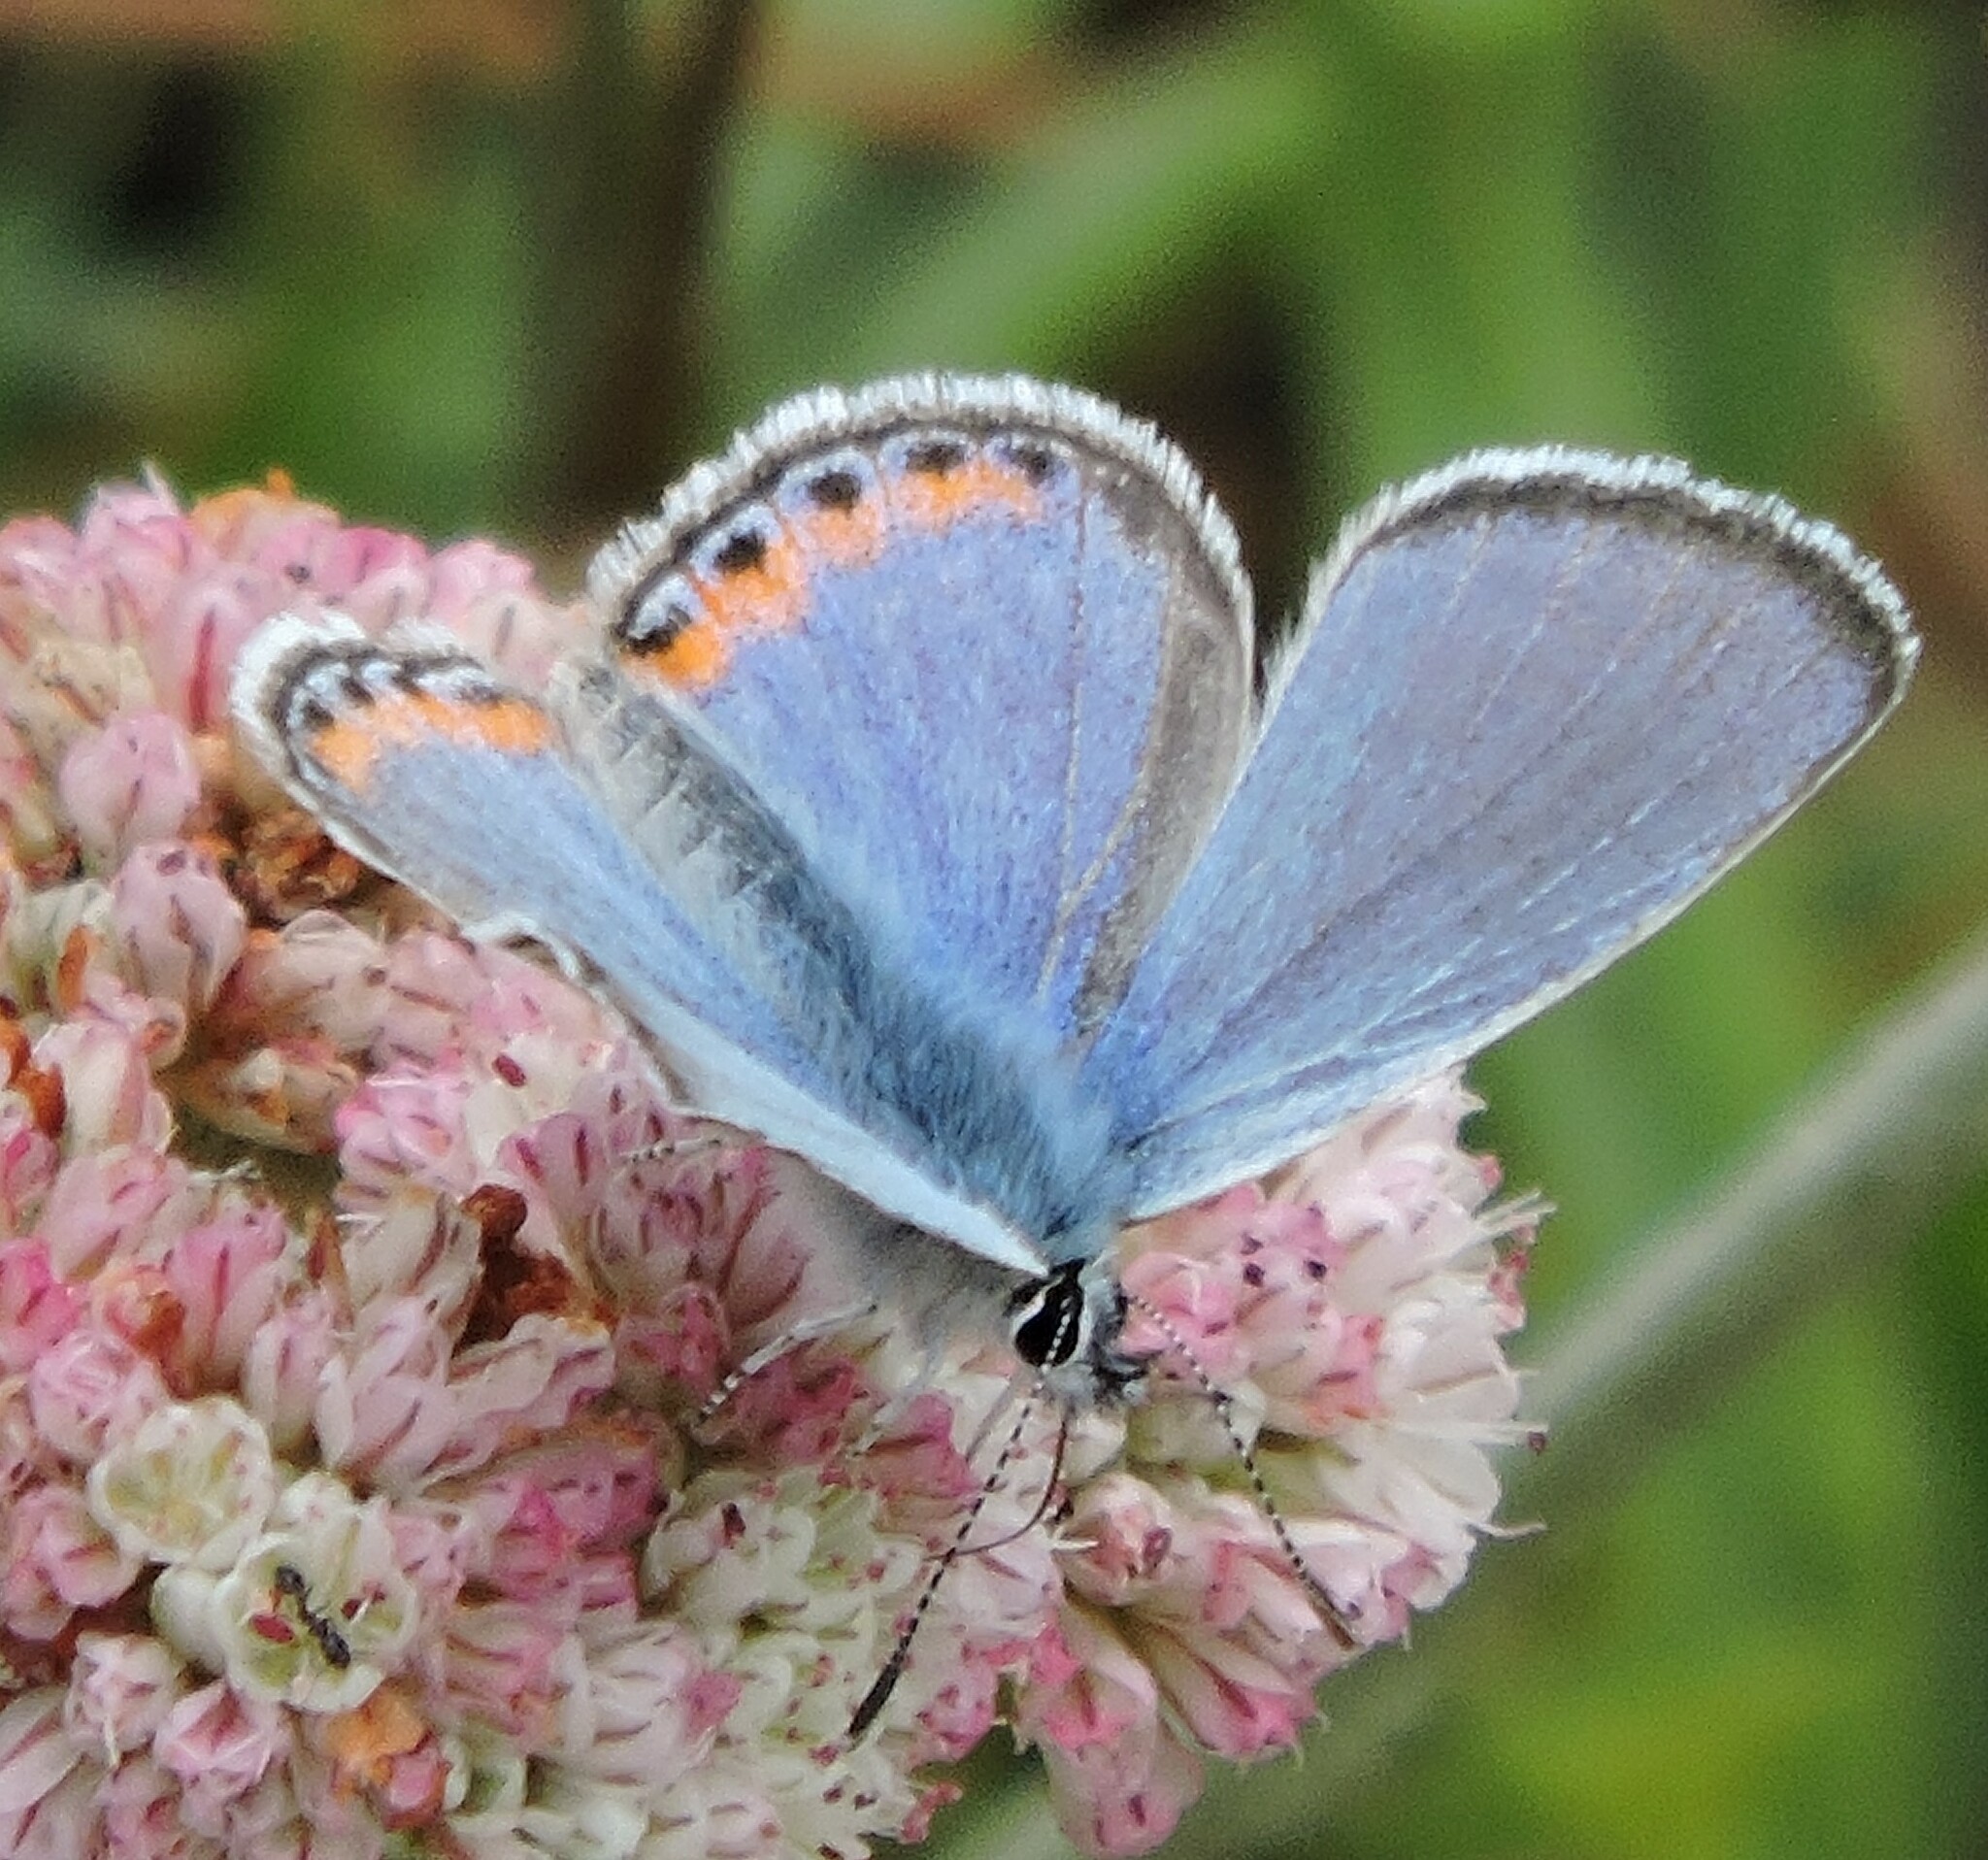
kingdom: Animalia
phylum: Arthropoda
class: Insecta
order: Lepidoptera
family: Lycaenidae
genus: Icaricia
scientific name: Icaricia acmon
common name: Acmon blue
